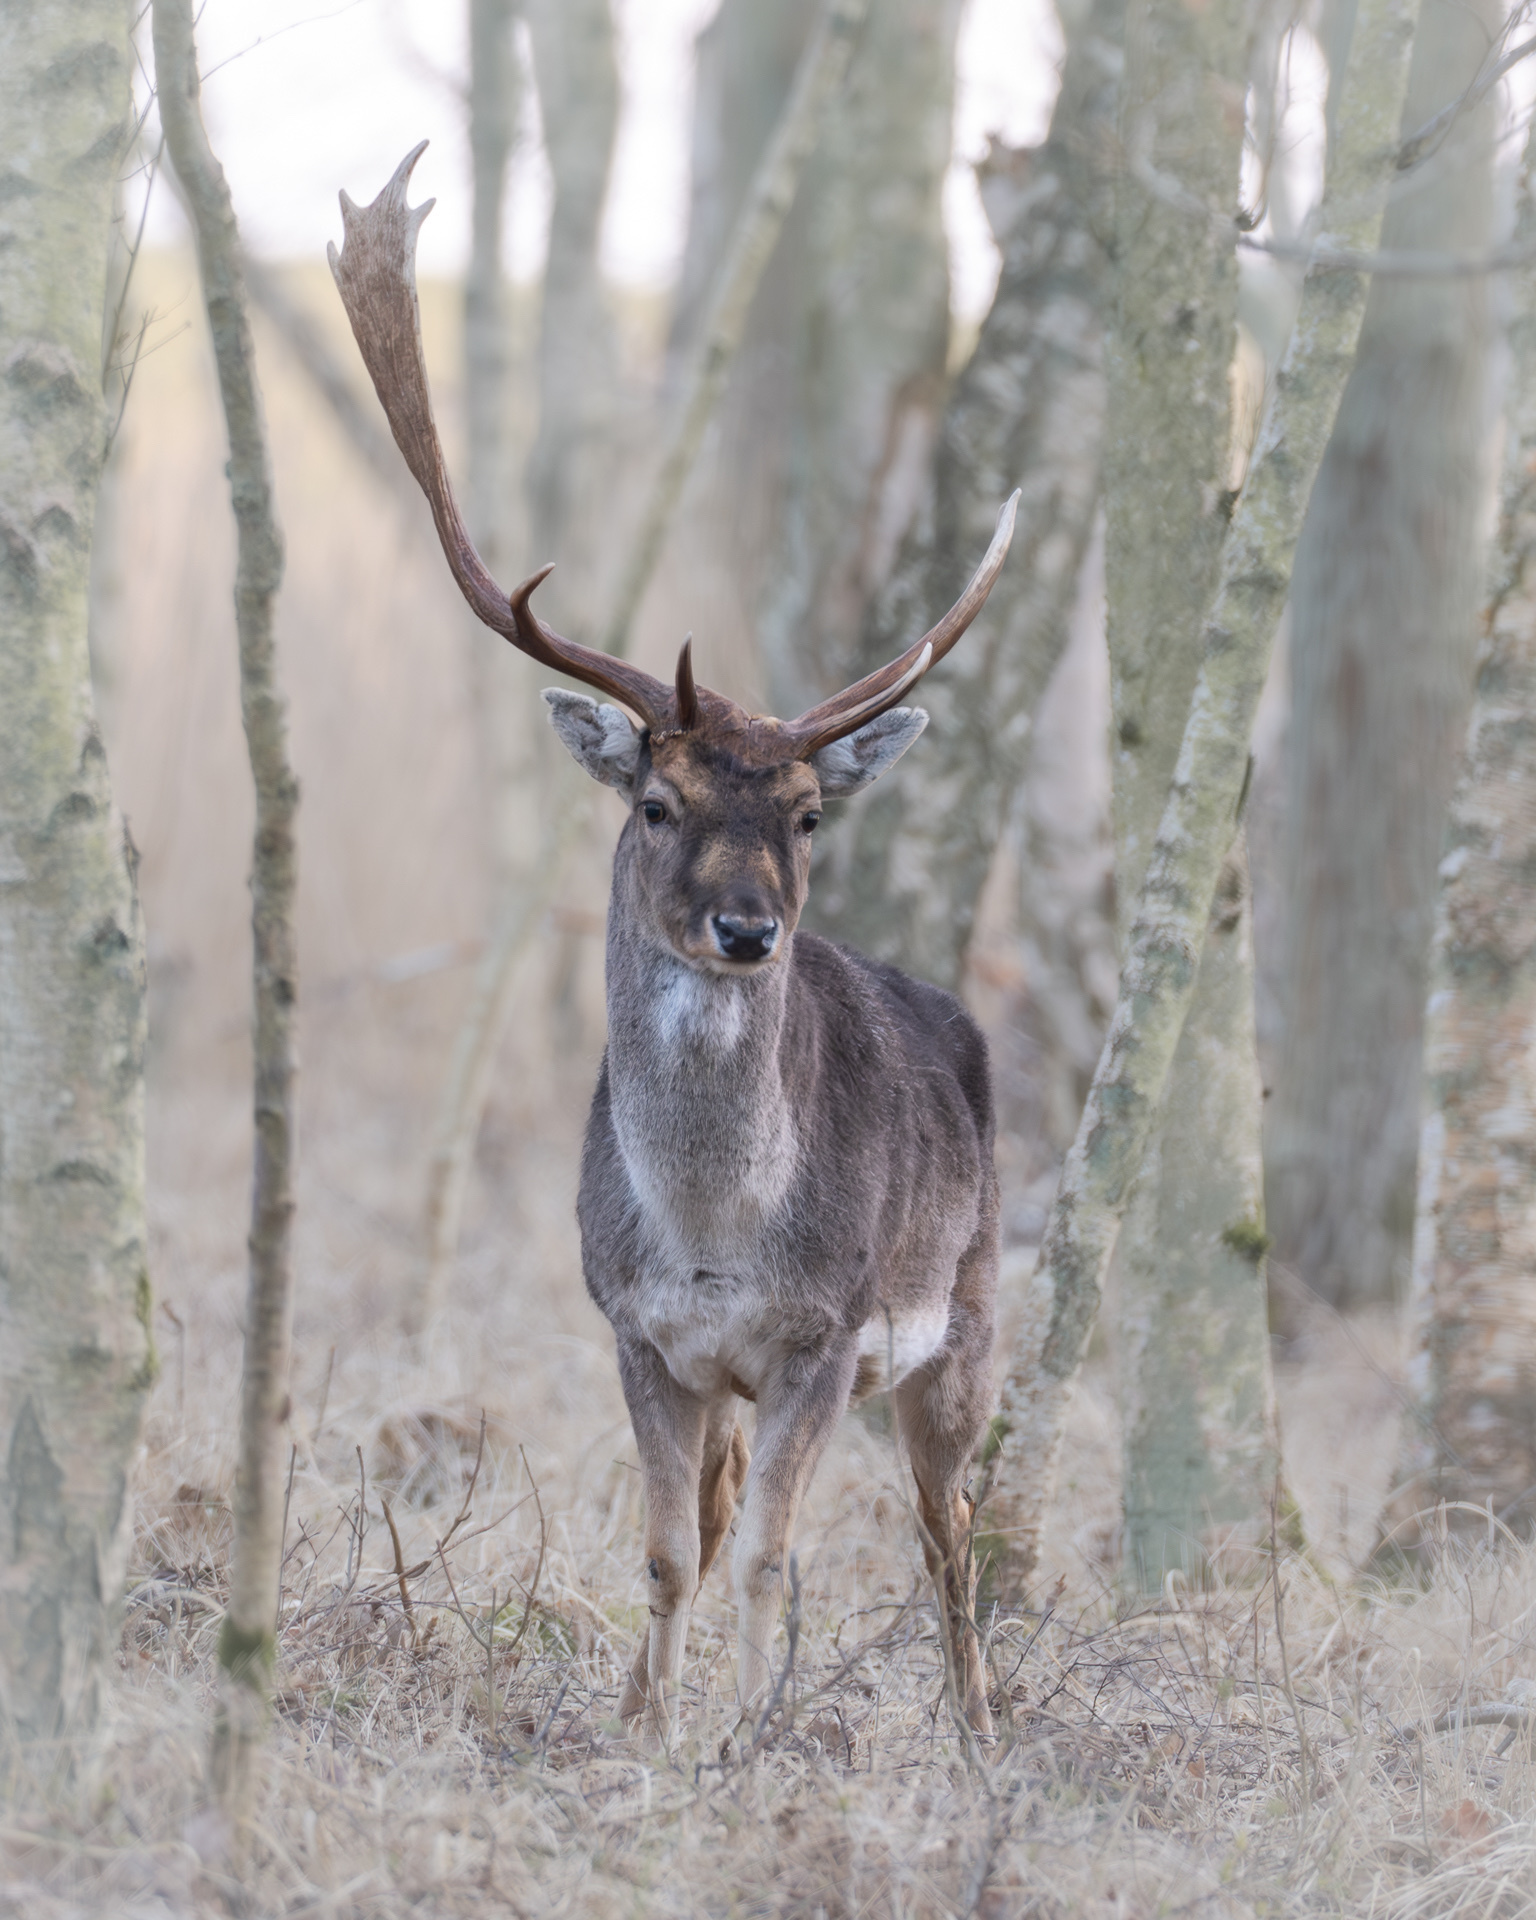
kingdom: Animalia
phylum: Chordata
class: Mammalia
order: Artiodactyla
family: Cervidae
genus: Dama
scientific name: Dama dama
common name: Fallow deer
